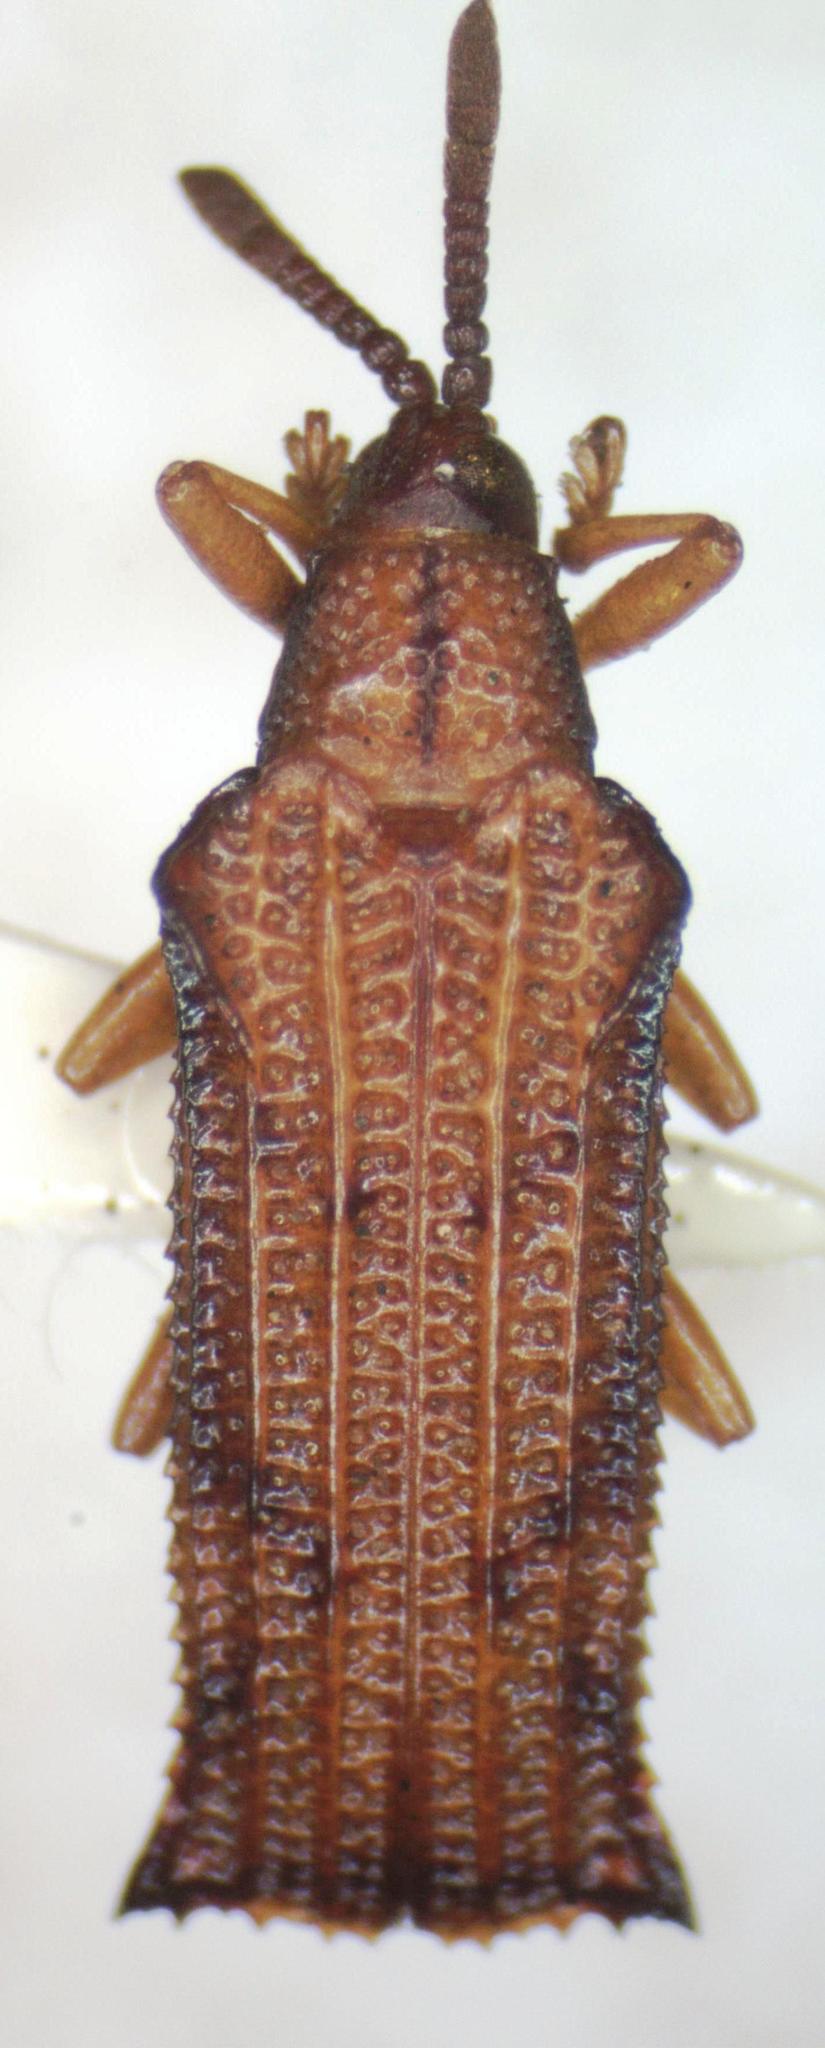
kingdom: Animalia
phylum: Arthropoda
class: Insecta
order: Coleoptera
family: Chrysomelidae
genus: Octhispa
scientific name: Octhispa elevata
